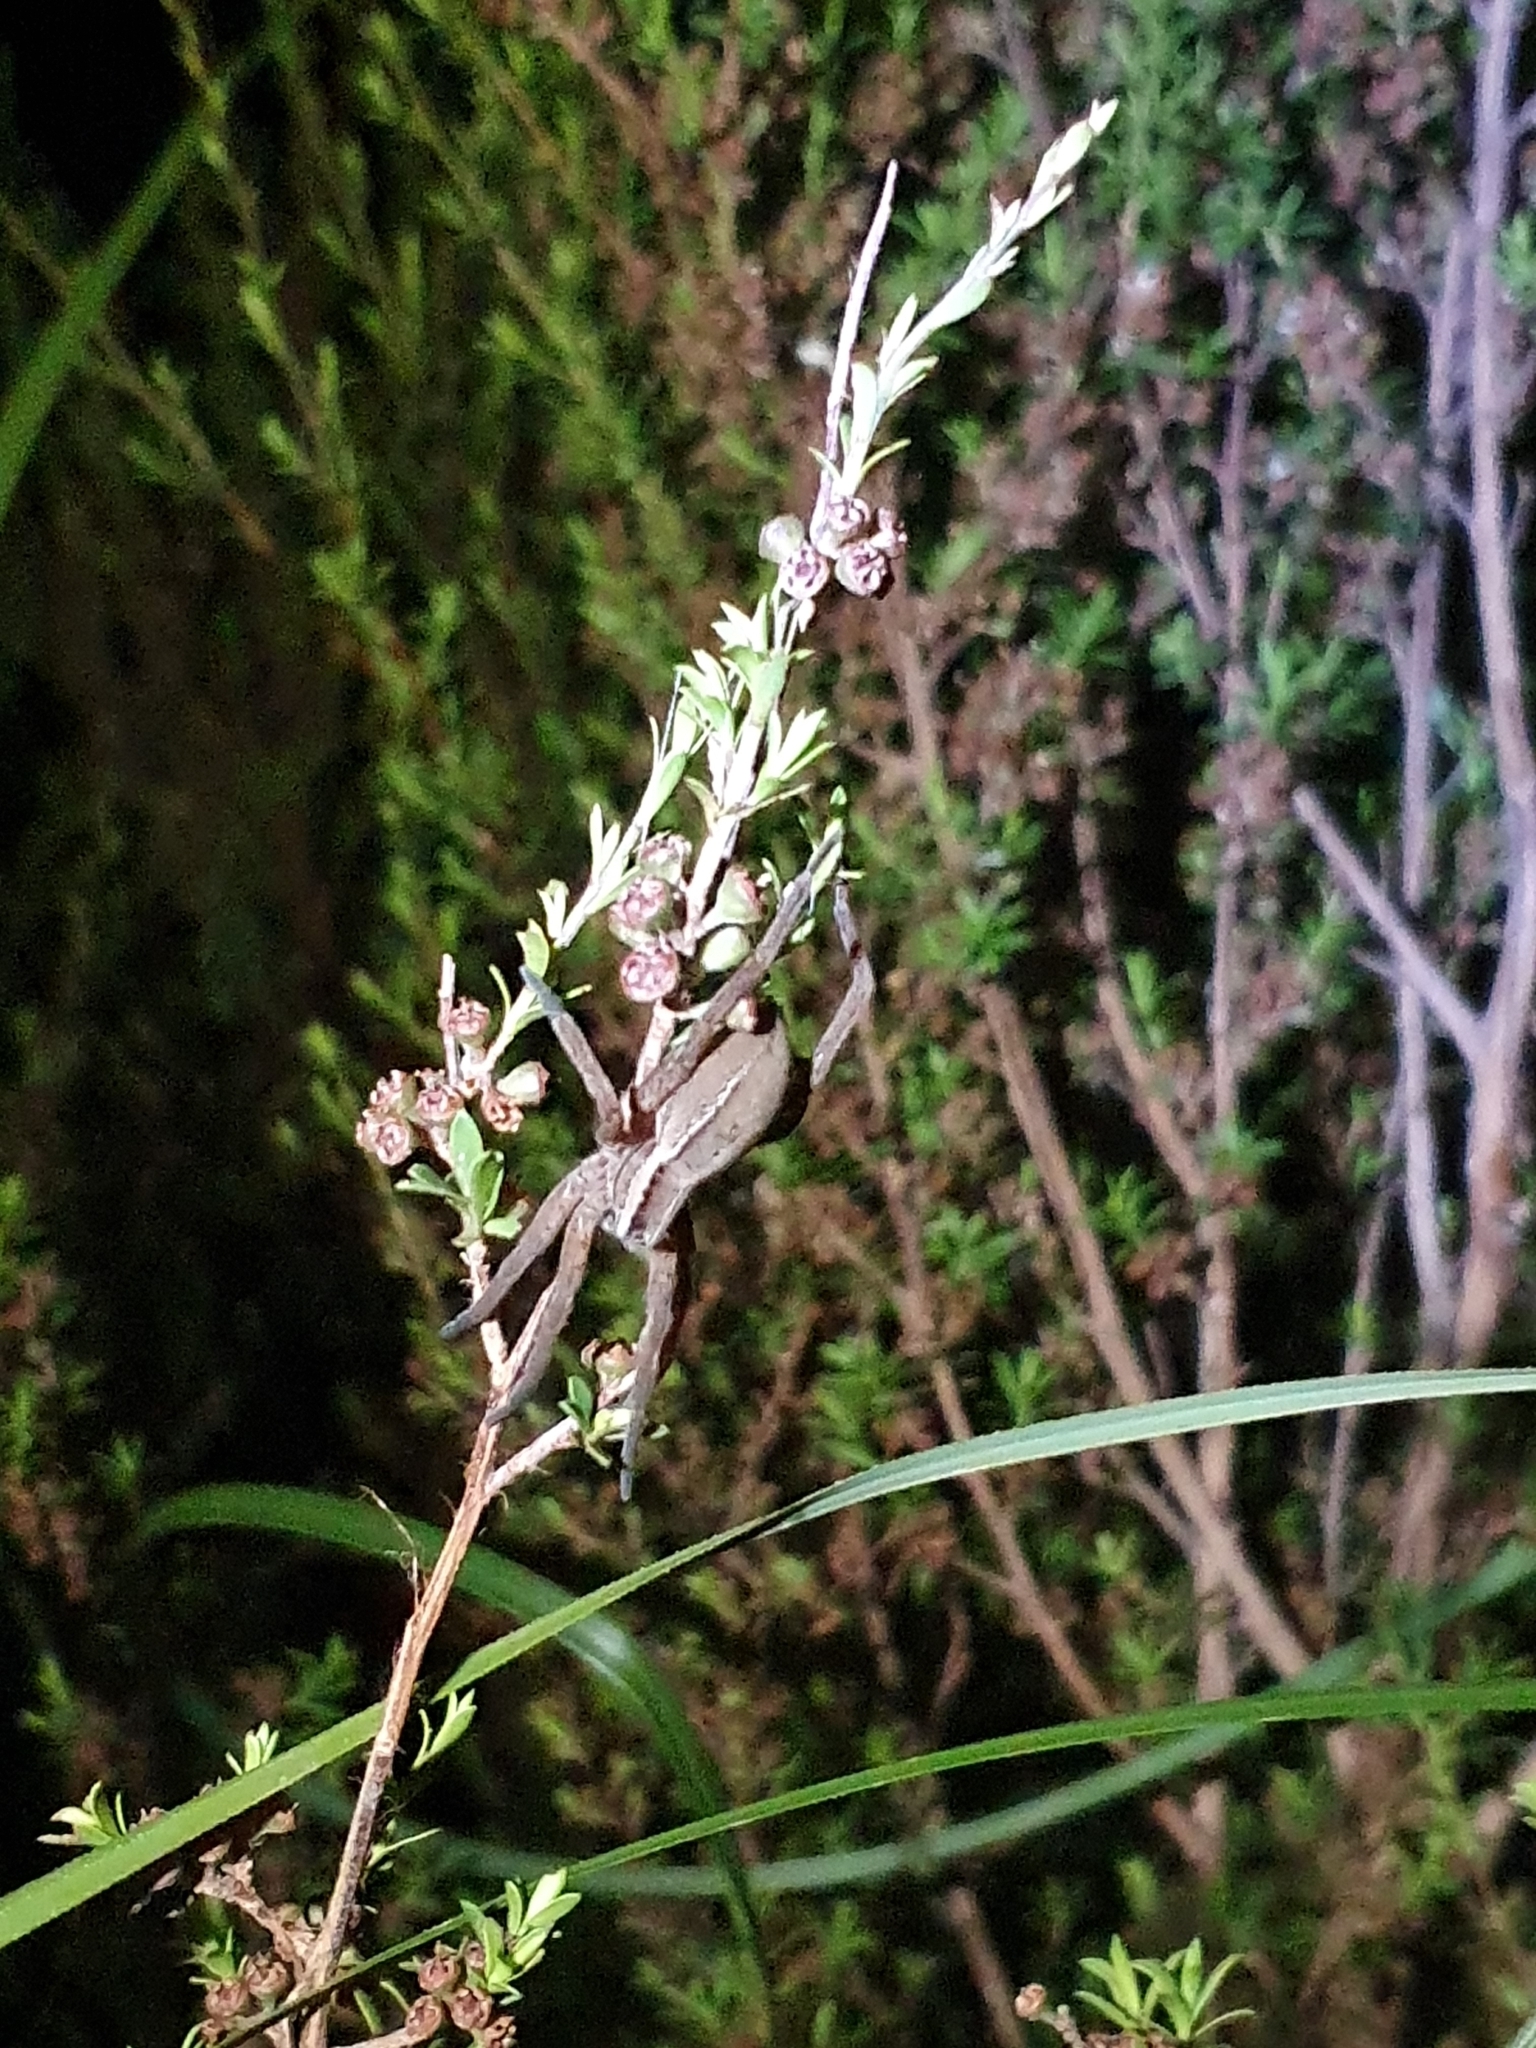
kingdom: Animalia
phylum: Arthropoda
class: Arachnida
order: Araneae
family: Pisauridae
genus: Dolomedes
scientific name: Dolomedes minor
